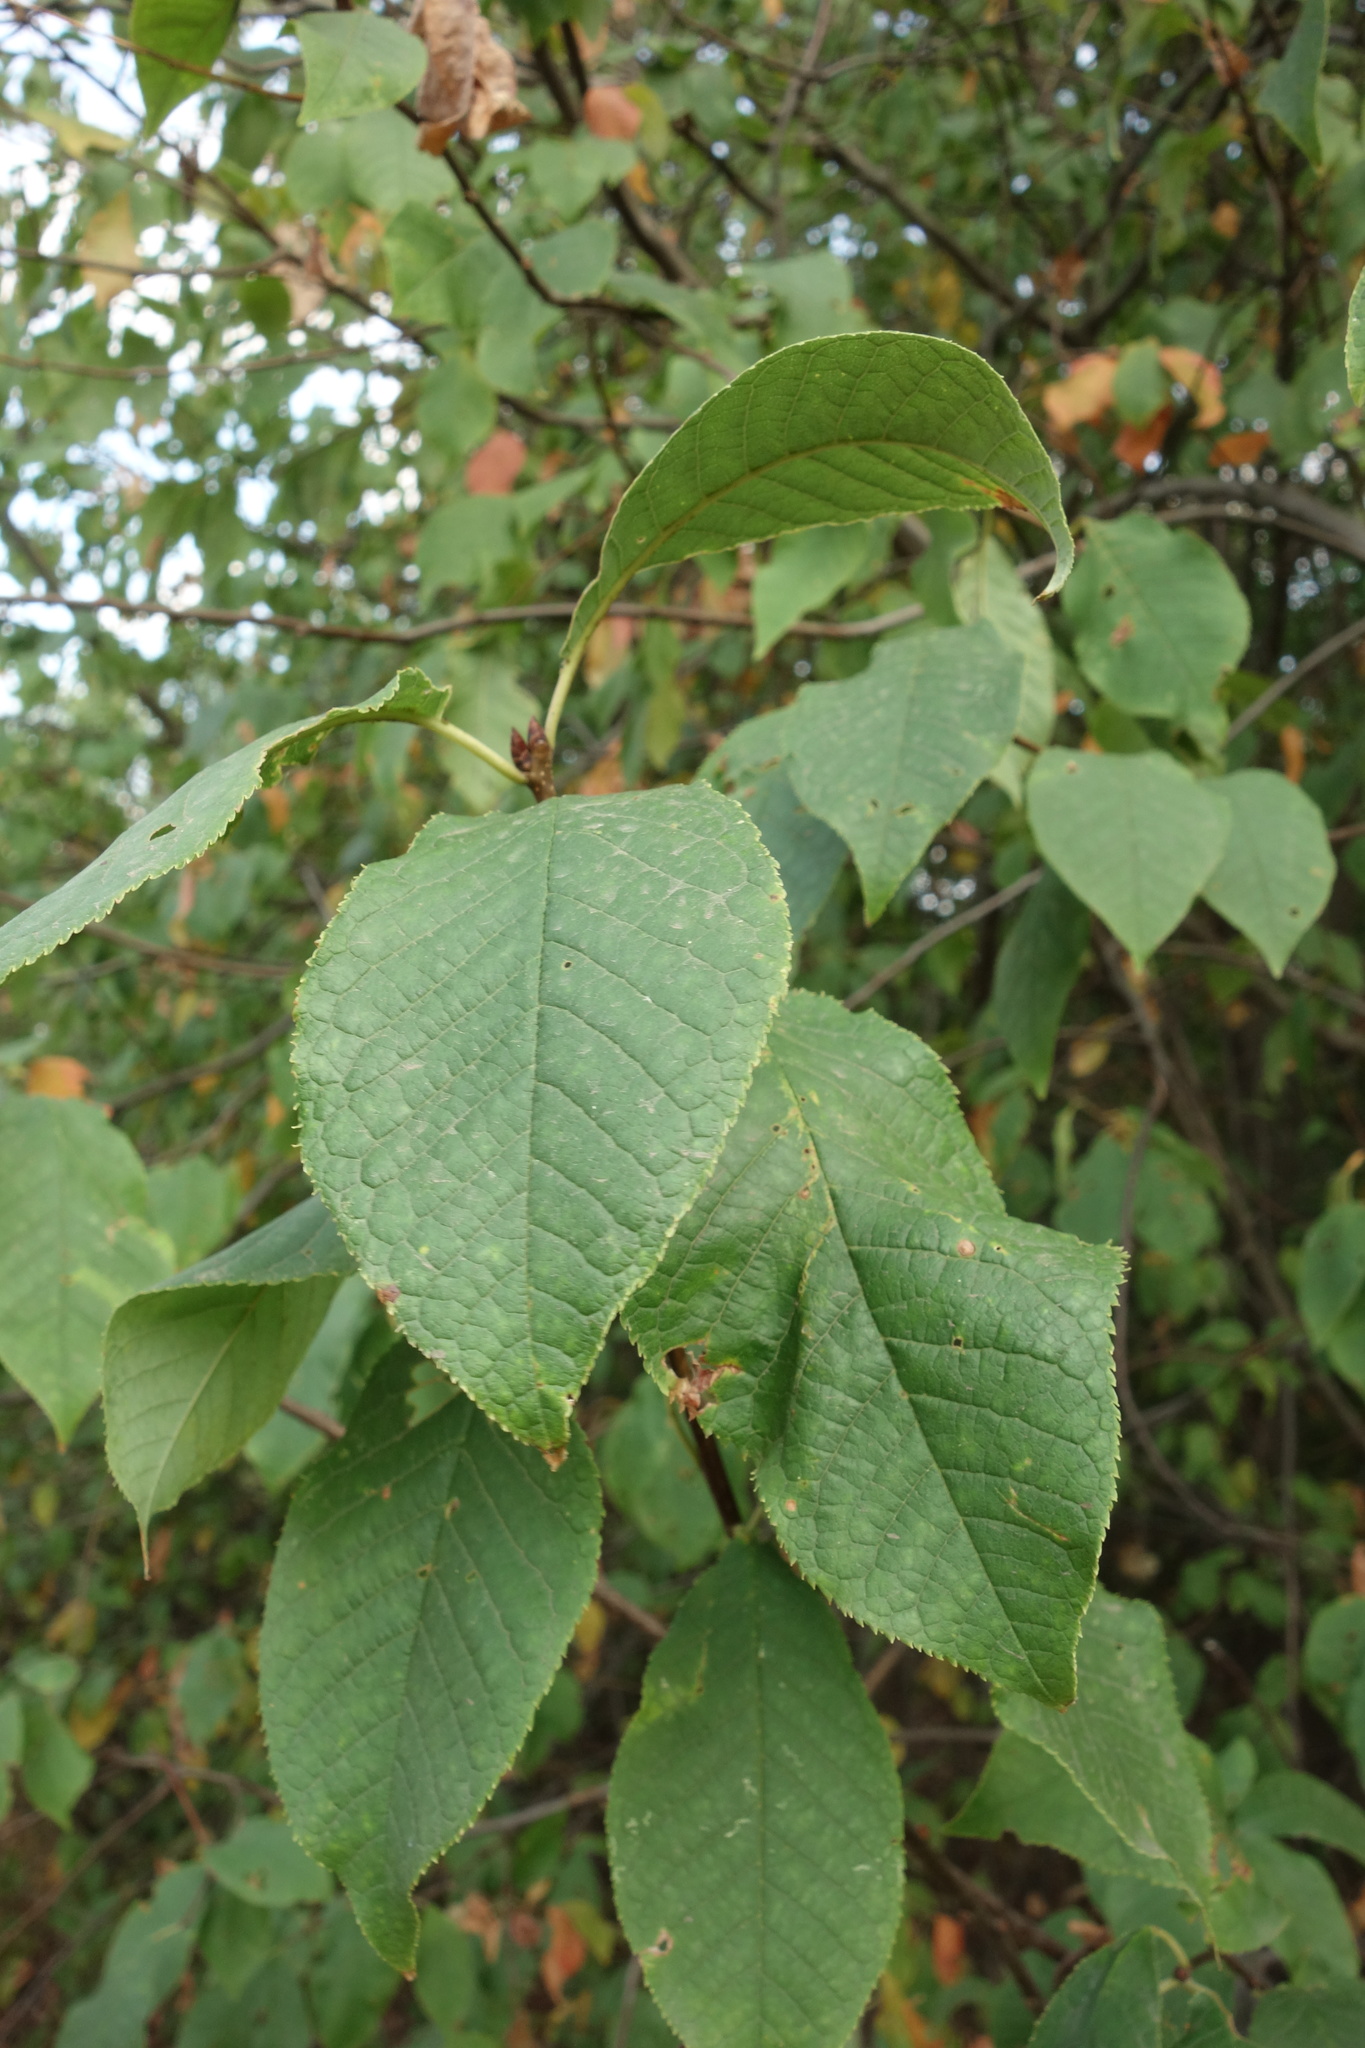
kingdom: Plantae
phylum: Tracheophyta
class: Magnoliopsida
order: Rosales
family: Rosaceae
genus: Prunus
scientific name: Prunus padus
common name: Bird cherry
